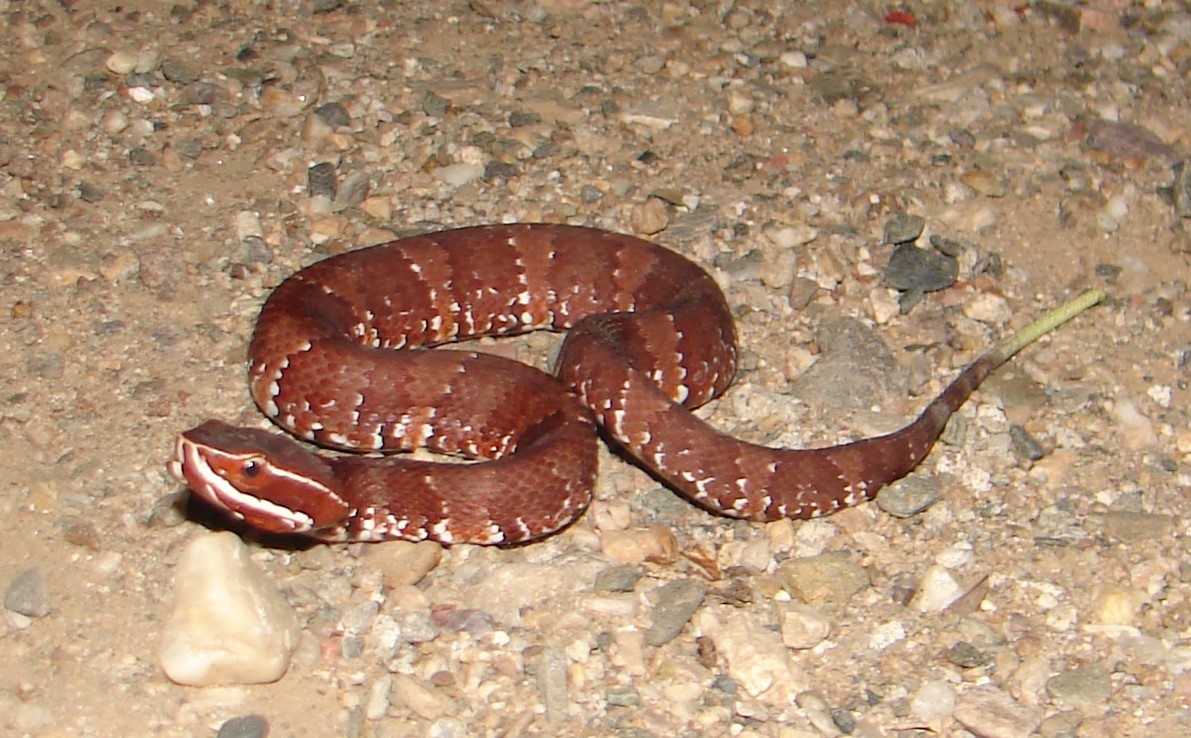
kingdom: Animalia
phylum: Chordata
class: Squamata
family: Viperidae
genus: Agkistrodon
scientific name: Agkistrodon bilineatus
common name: Mexican moccasin
